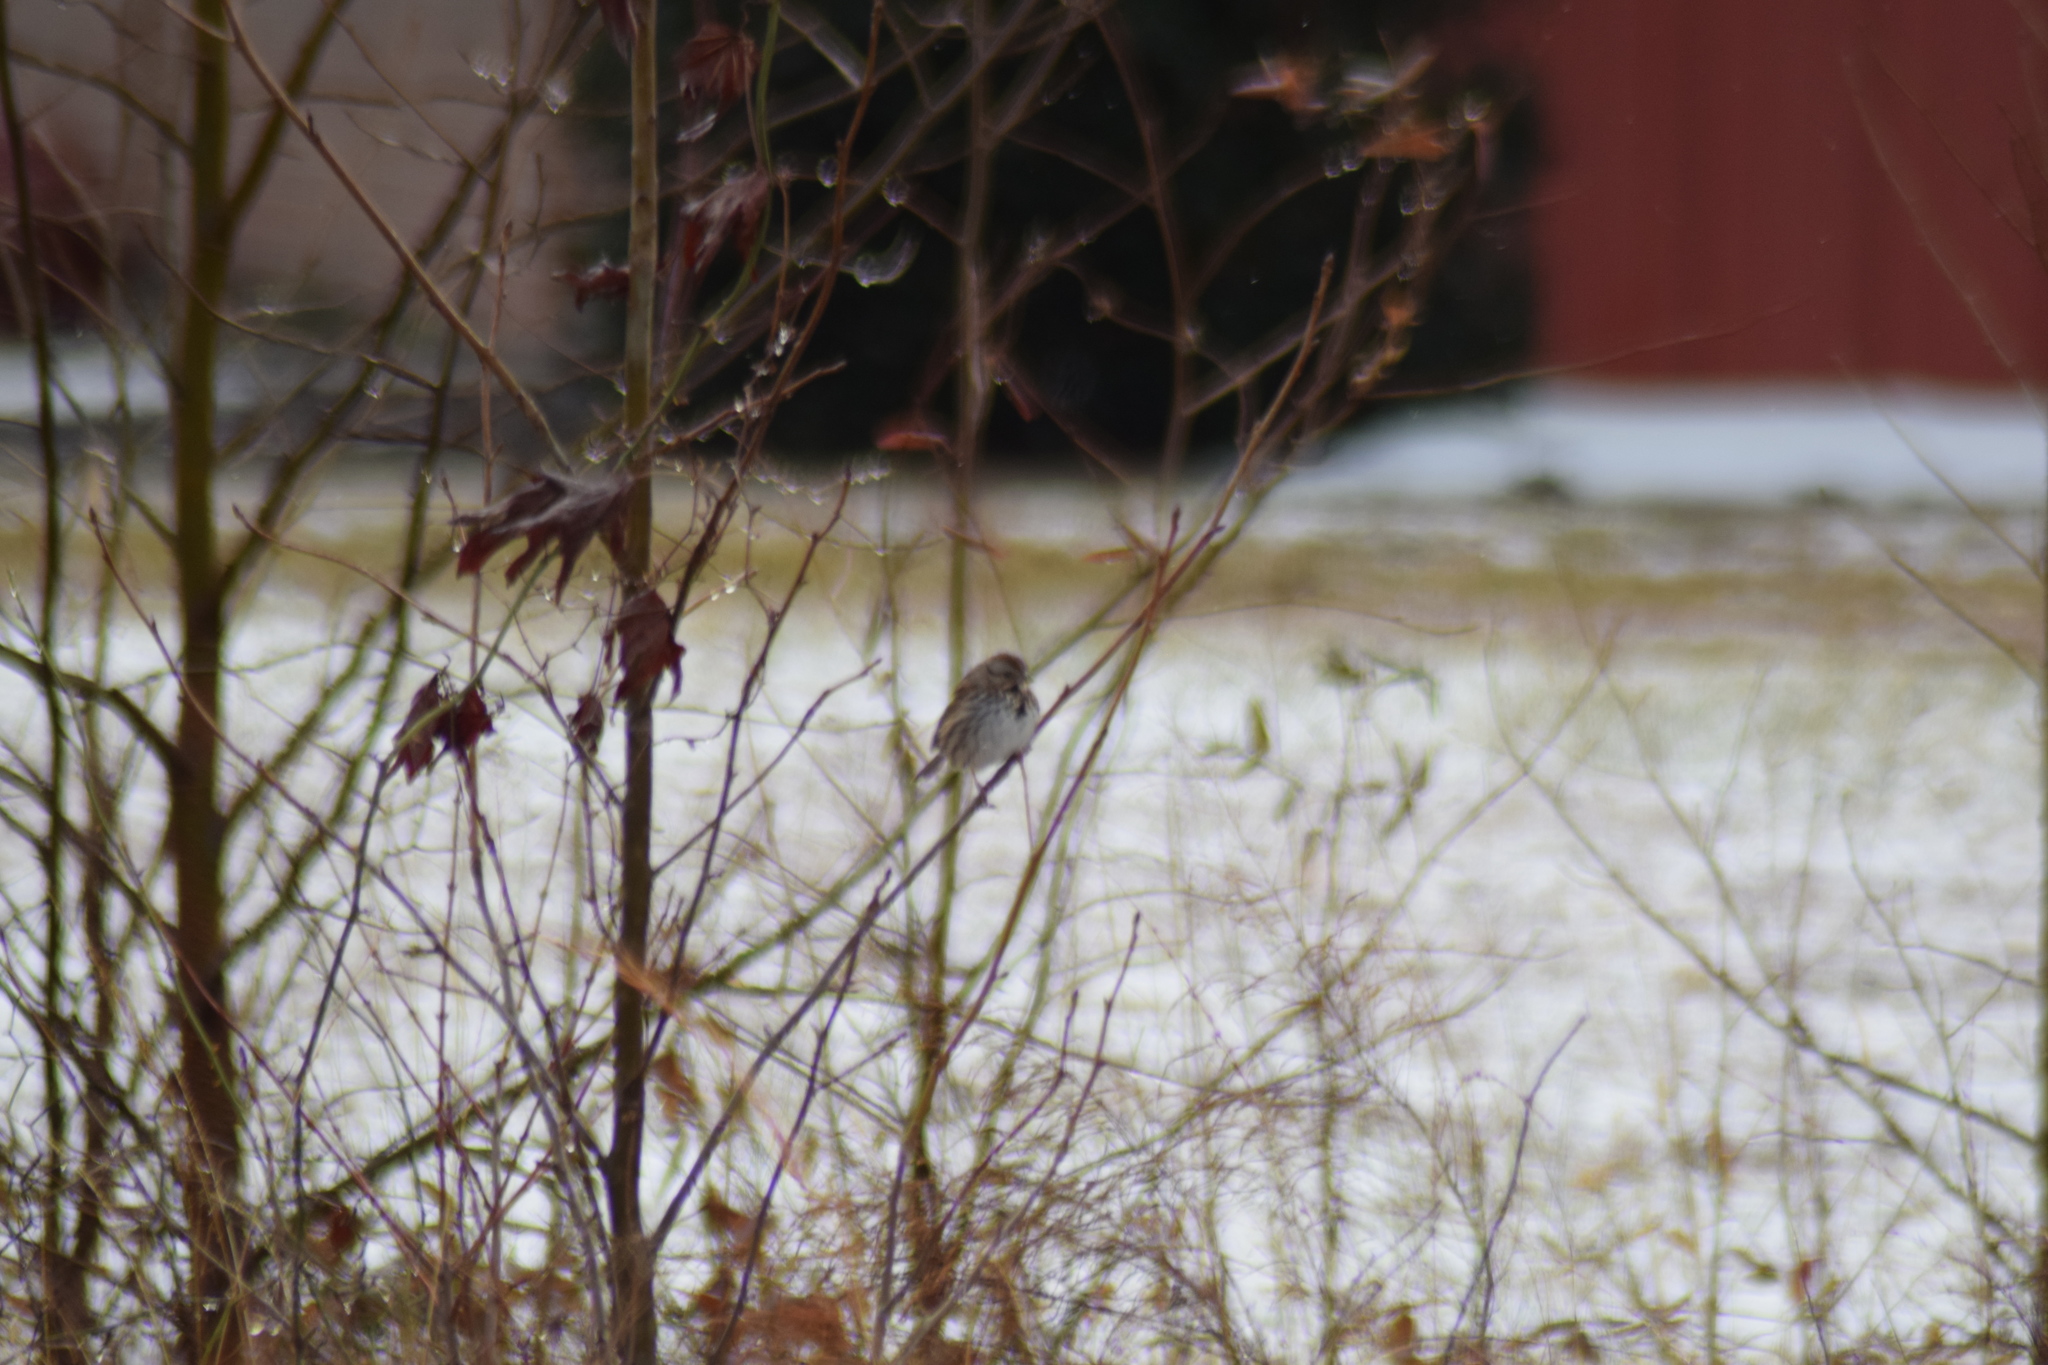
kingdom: Animalia
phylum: Chordata
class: Aves
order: Passeriformes
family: Passerellidae
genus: Melospiza
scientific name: Melospiza melodia
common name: Song sparrow
